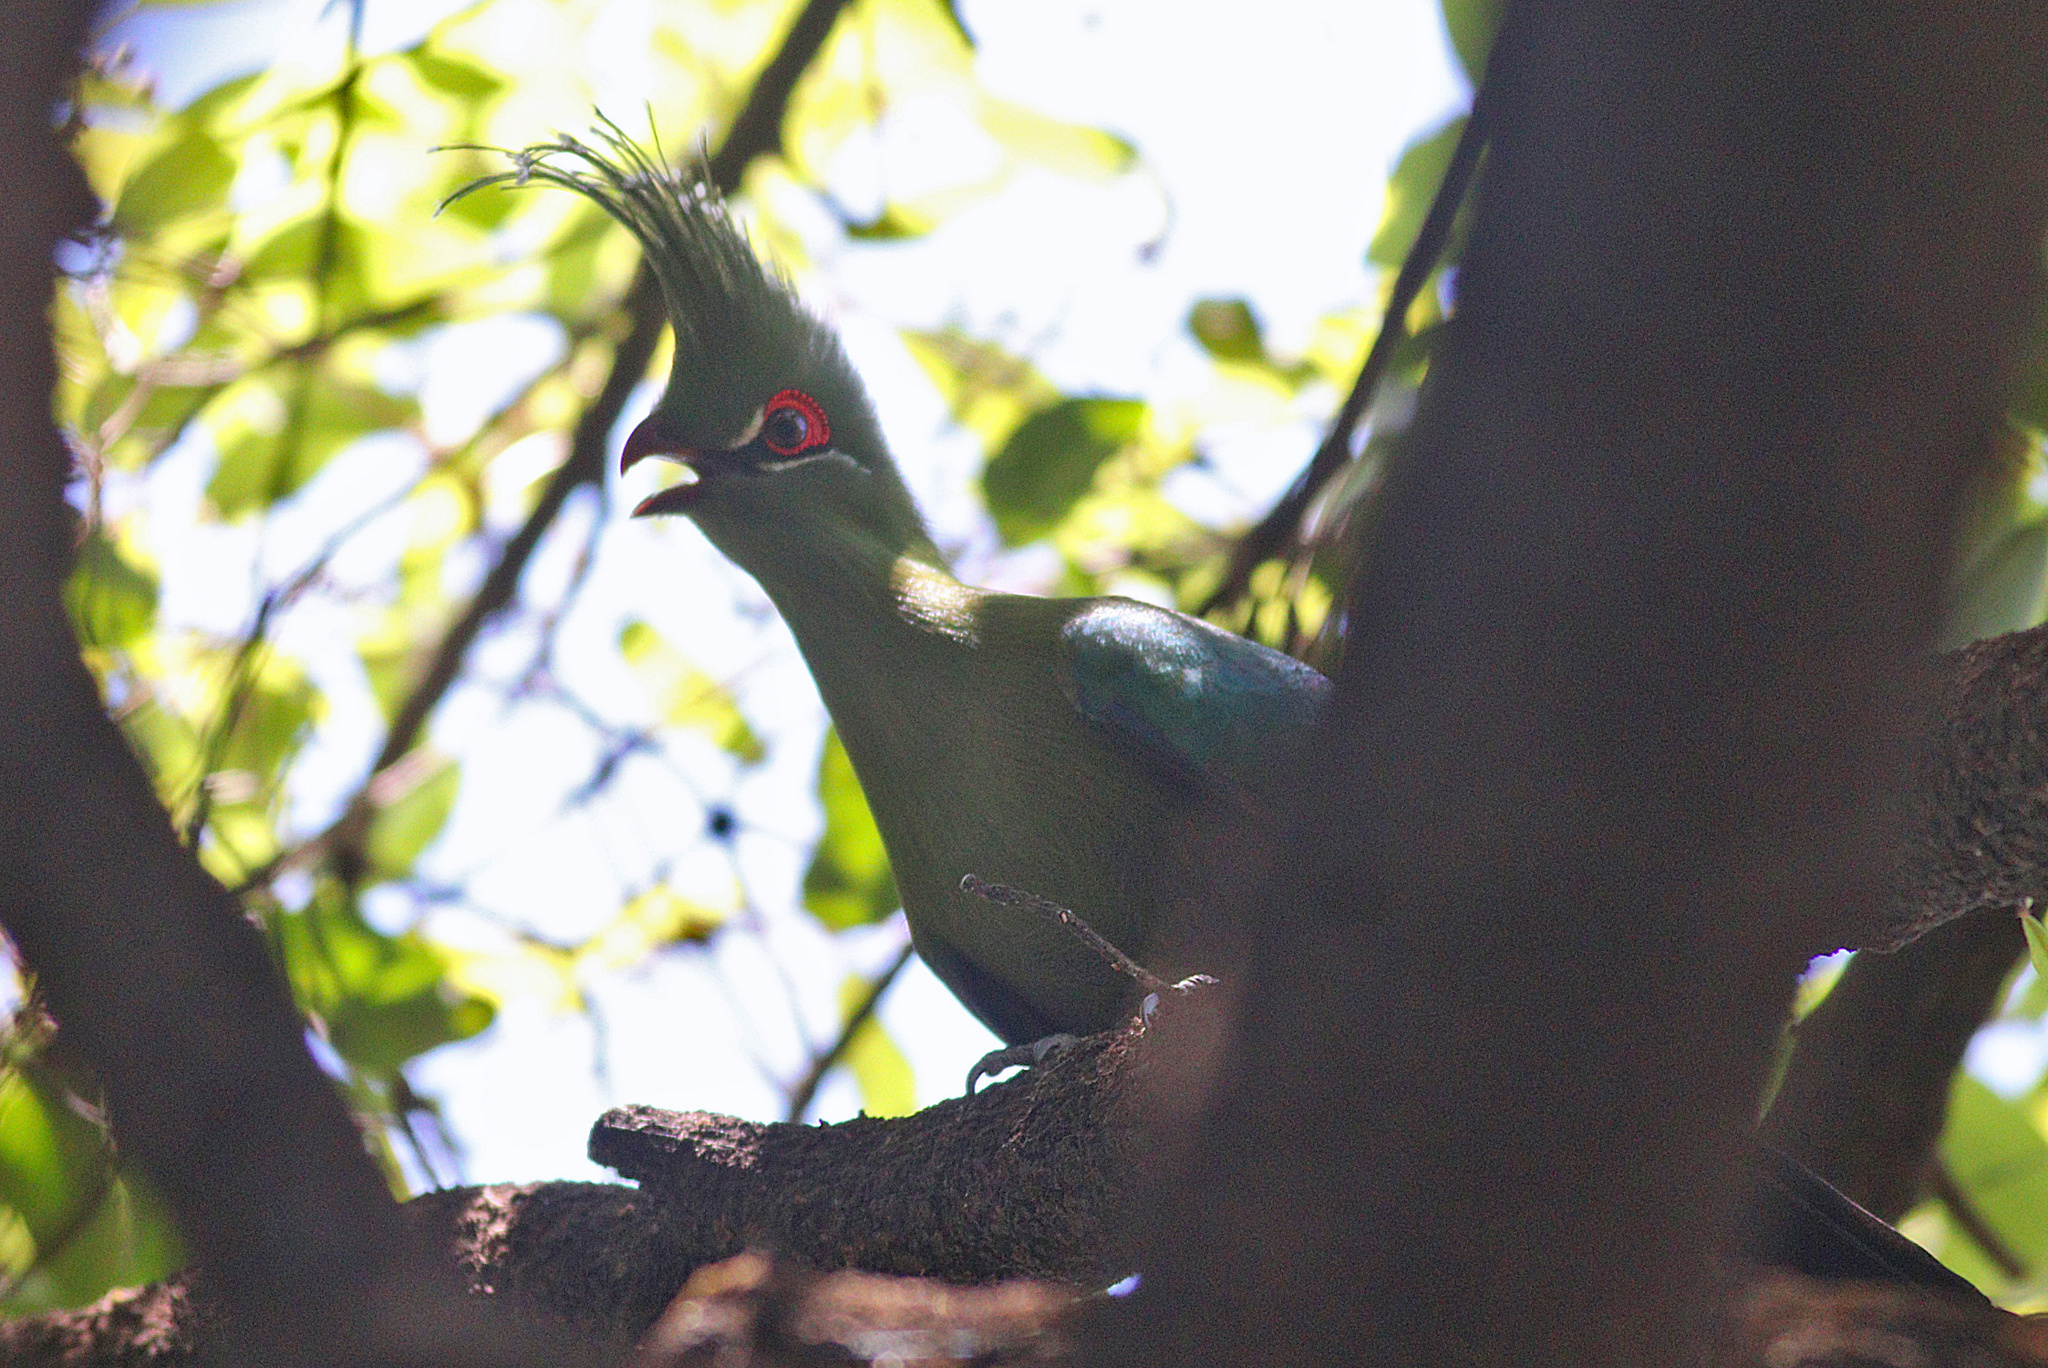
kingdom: Animalia
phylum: Chordata
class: Aves
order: Musophagiformes
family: Musophagidae
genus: Tauraco
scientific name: Tauraco schalowi
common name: Schalow's turaco
